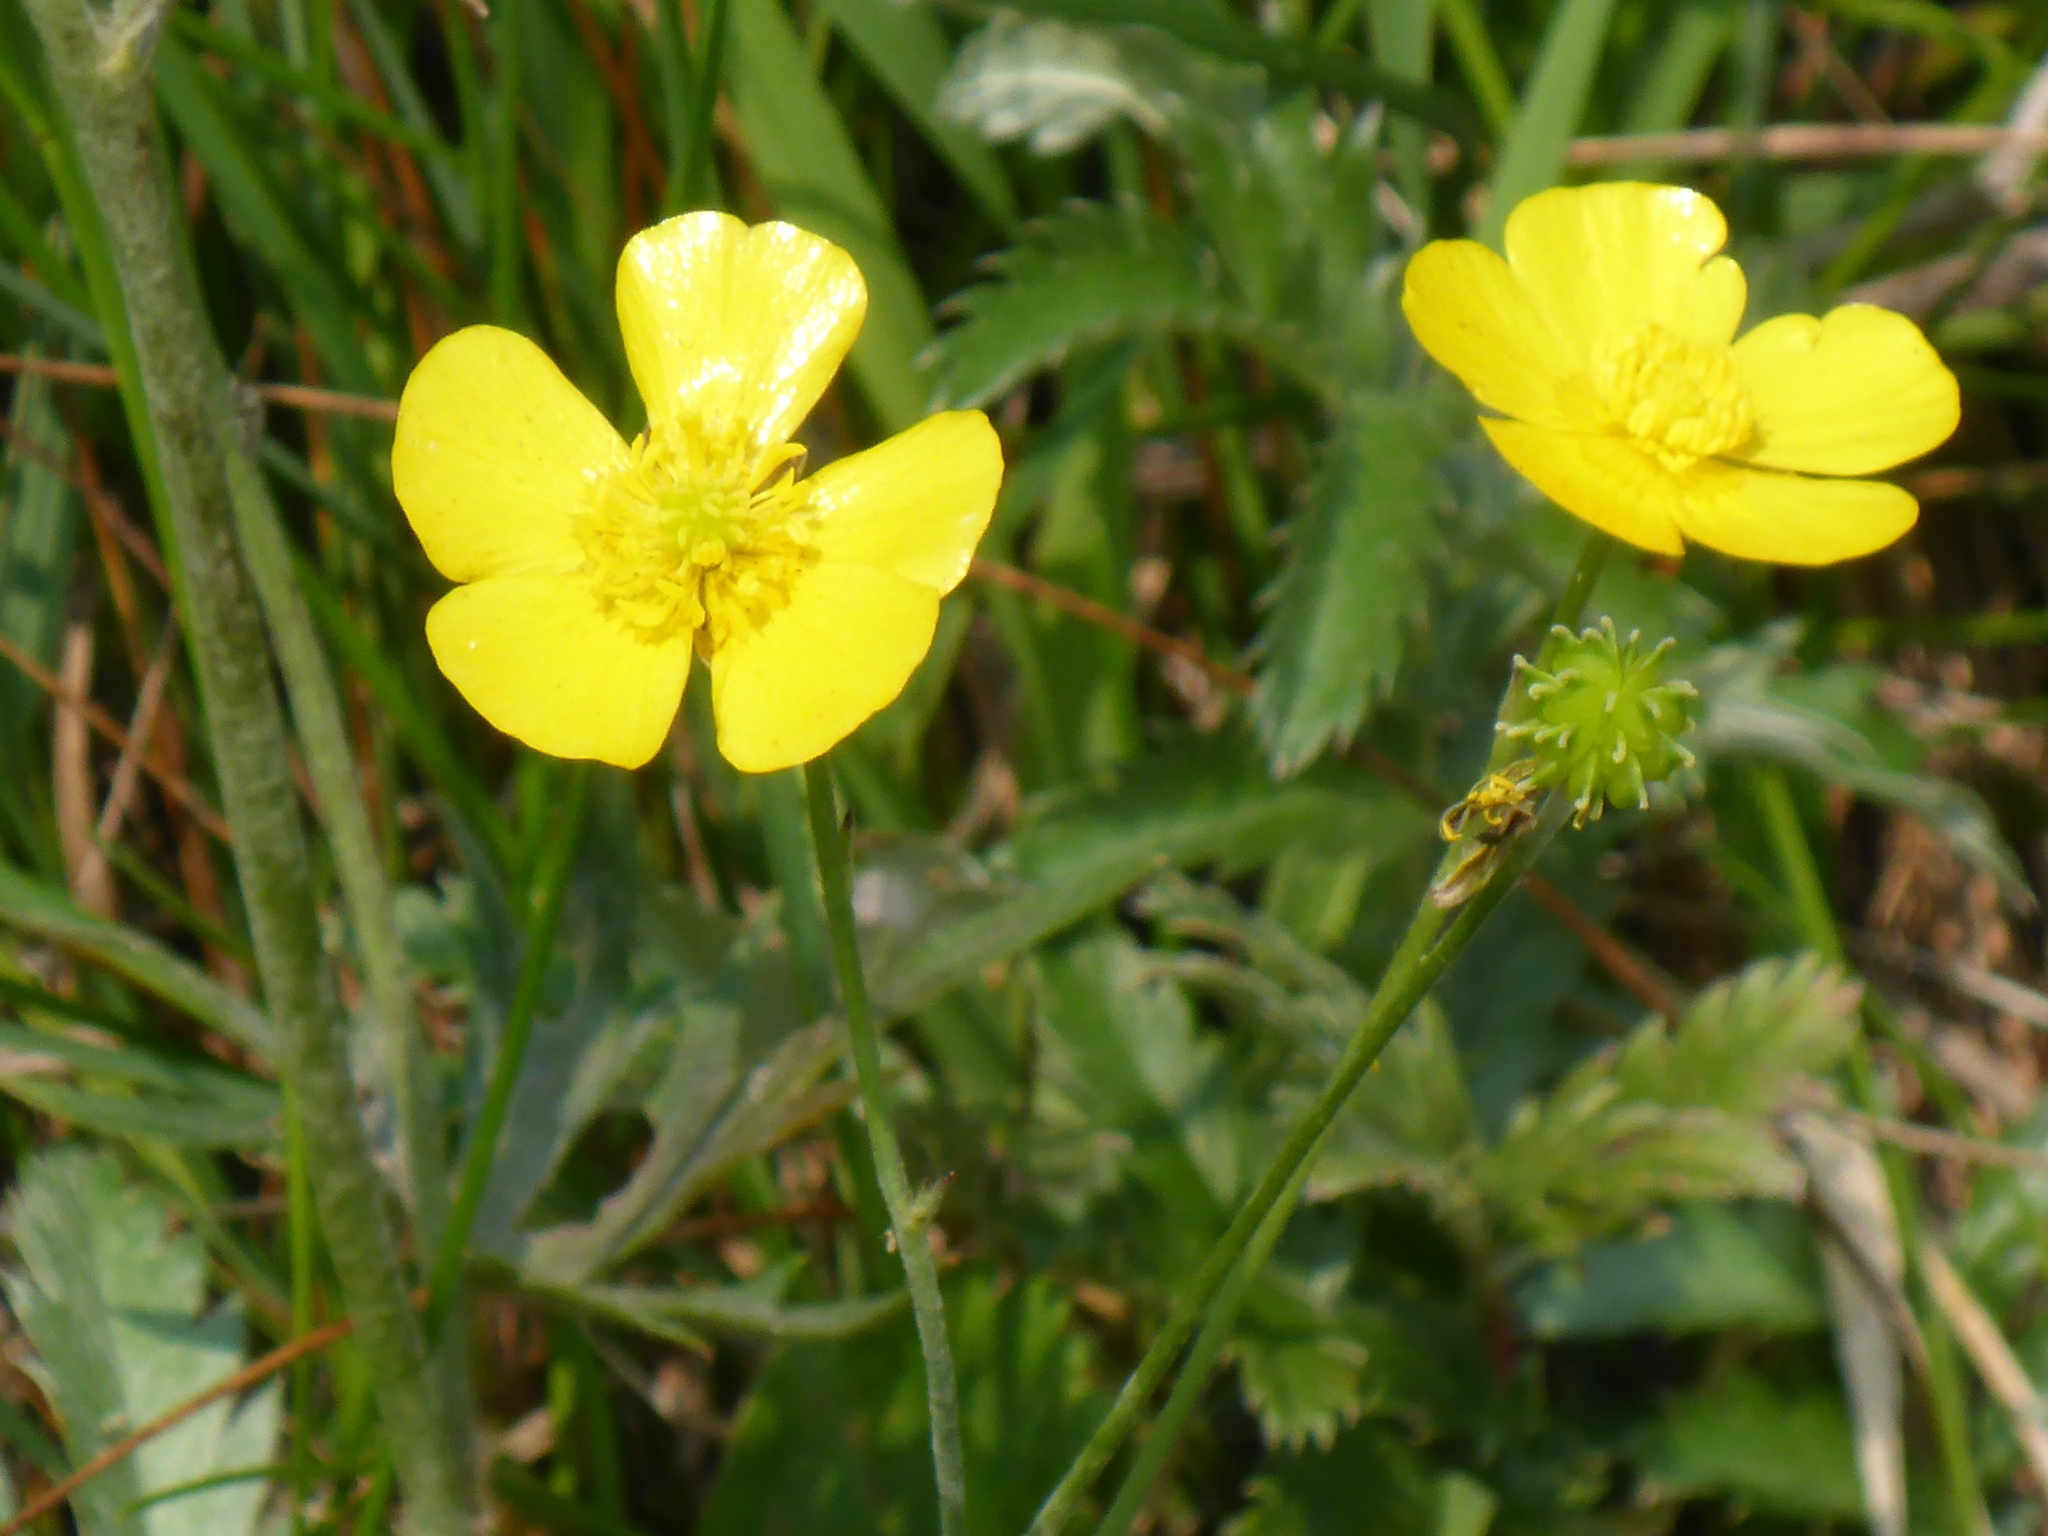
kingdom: Plantae
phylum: Tracheophyta
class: Magnoliopsida
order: Ranunculales
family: Ranunculaceae
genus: Ranunculus
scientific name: Ranunculus acris
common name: Meadow buttercup
